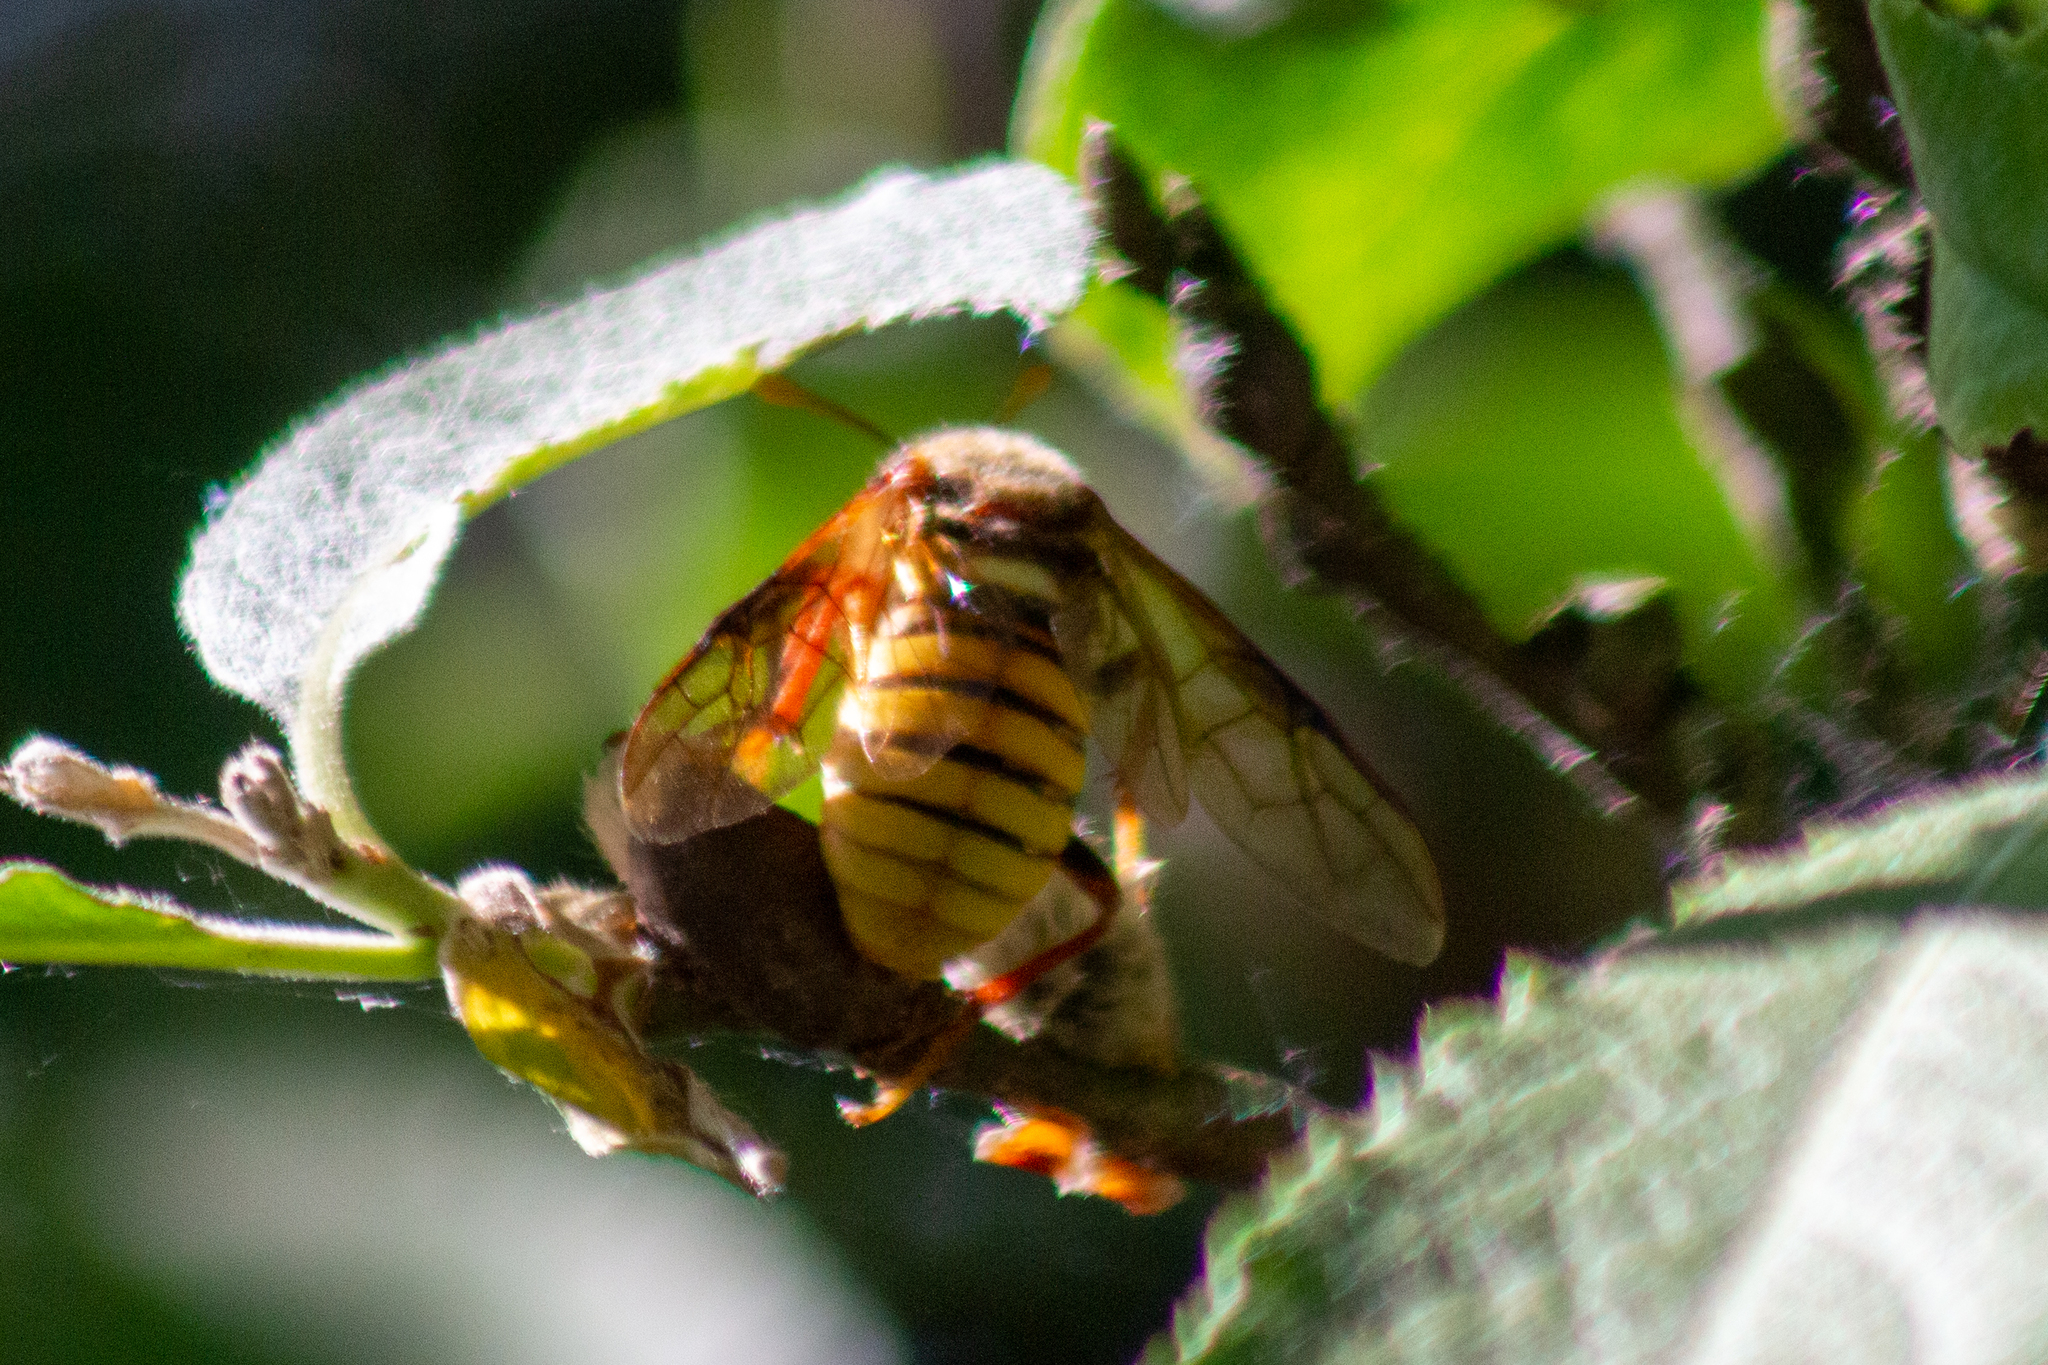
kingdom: Animalia
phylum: Arthropoda
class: Insecta
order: Hymenoptera
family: Cimbicidae
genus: Cimbex
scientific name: Cimbex luteus
